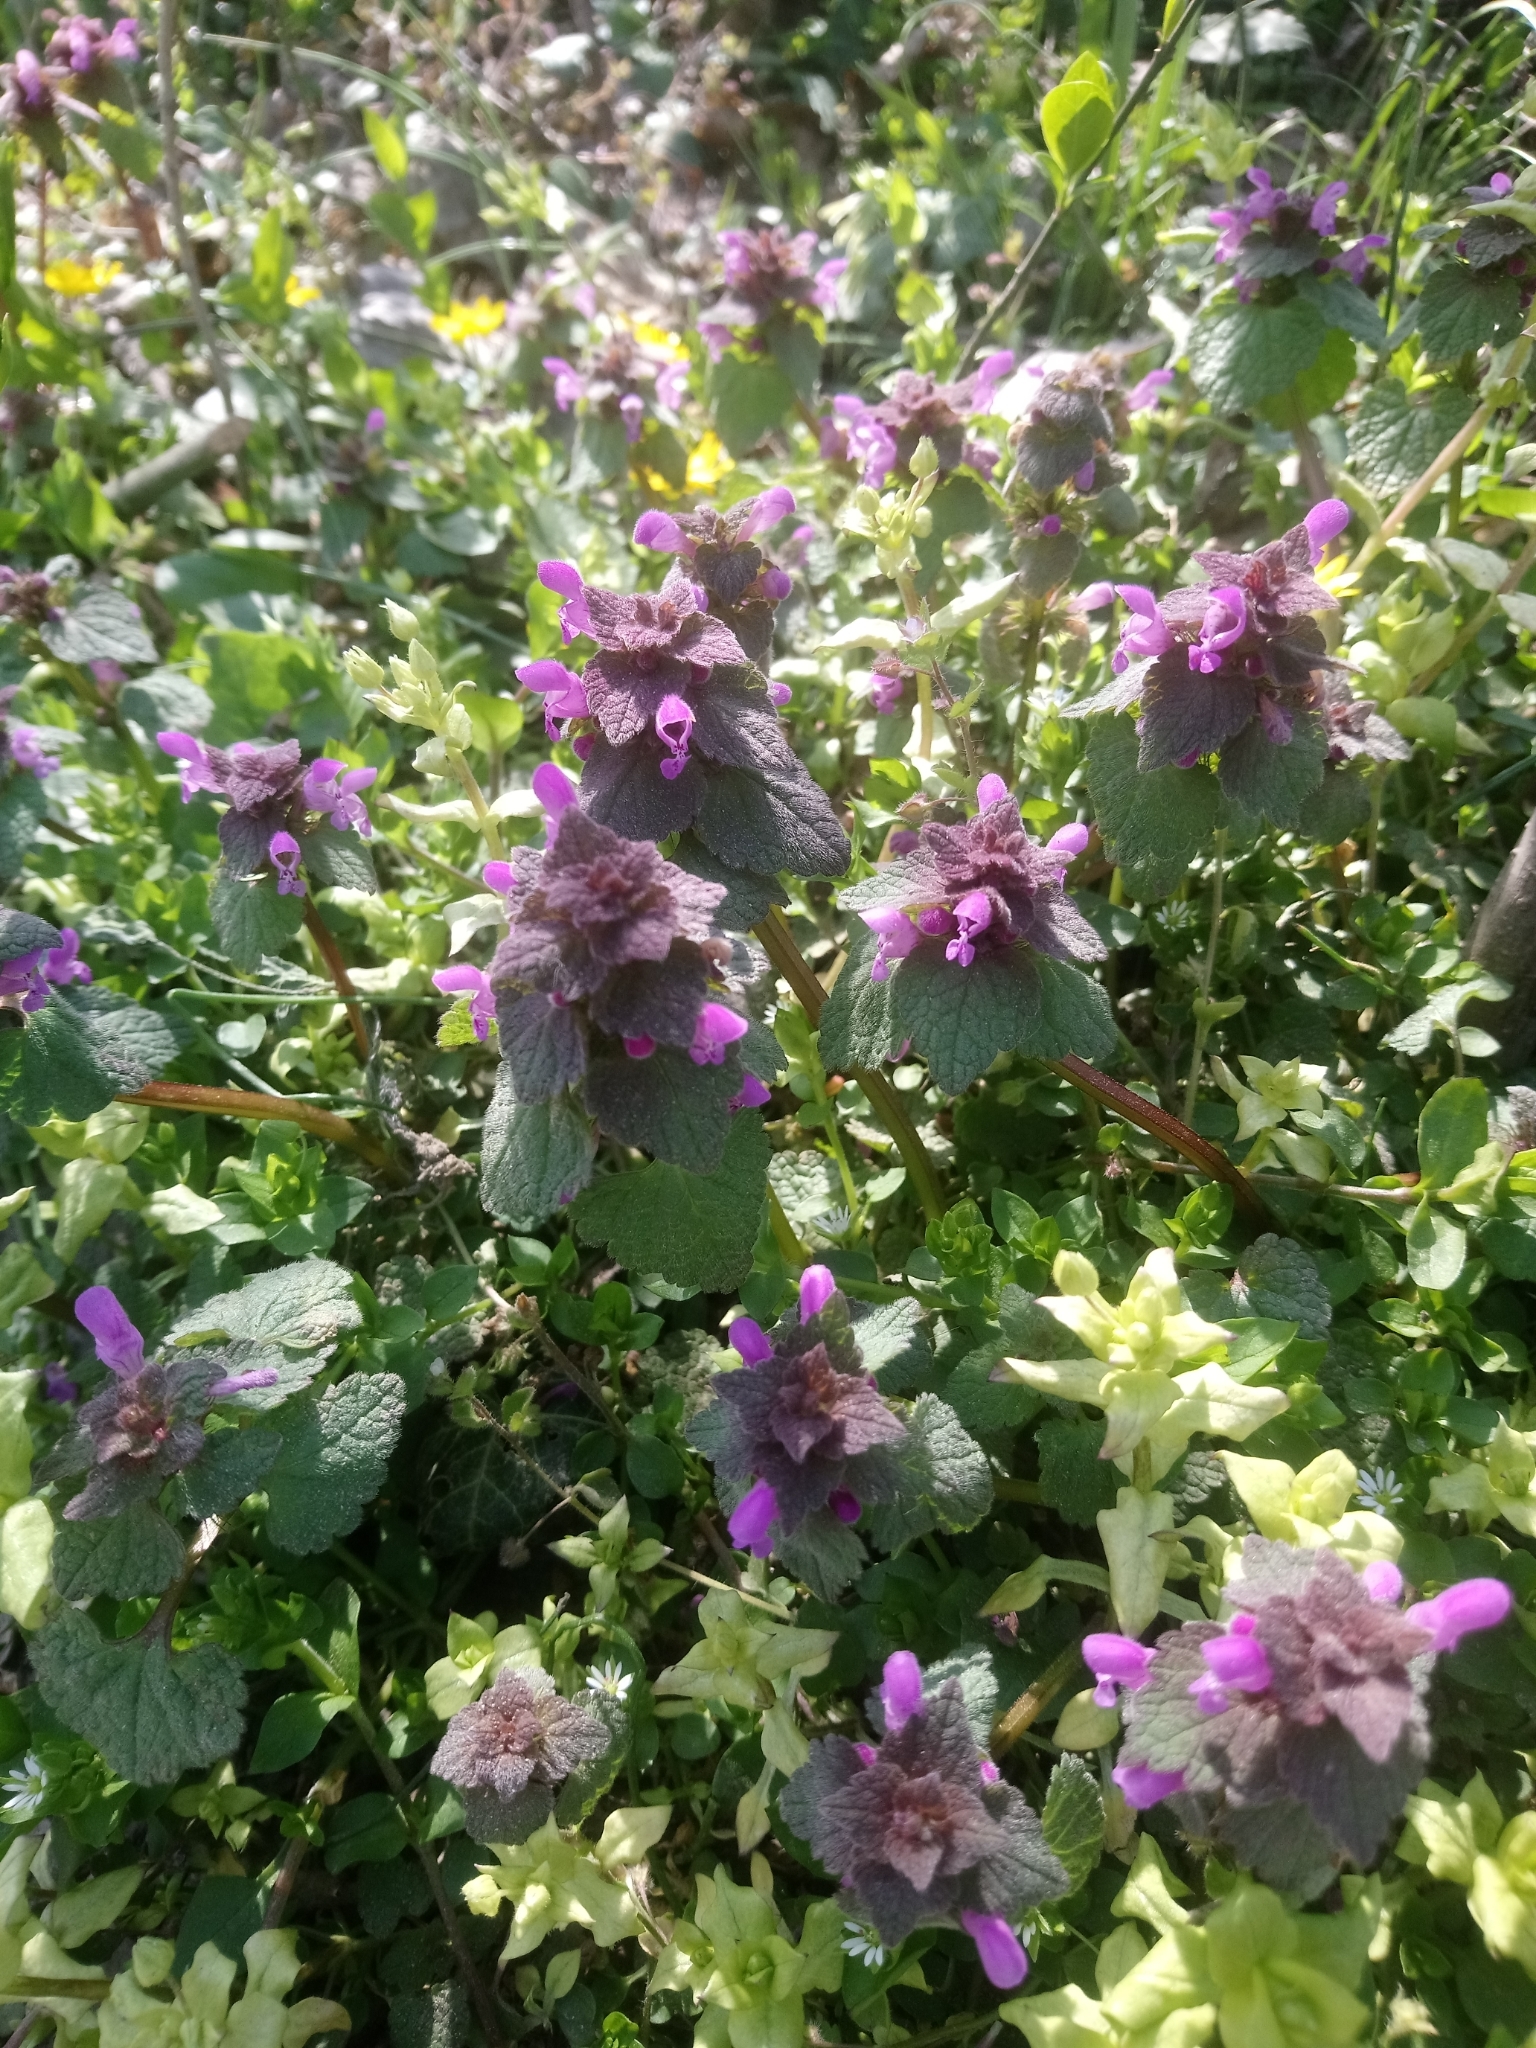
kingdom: Plantae
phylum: Tracheophyta
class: Magnoliopsida
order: Lamiales
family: Lamiaceae
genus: Lamium
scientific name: Lamium purpureum
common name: Red dead-nettle
